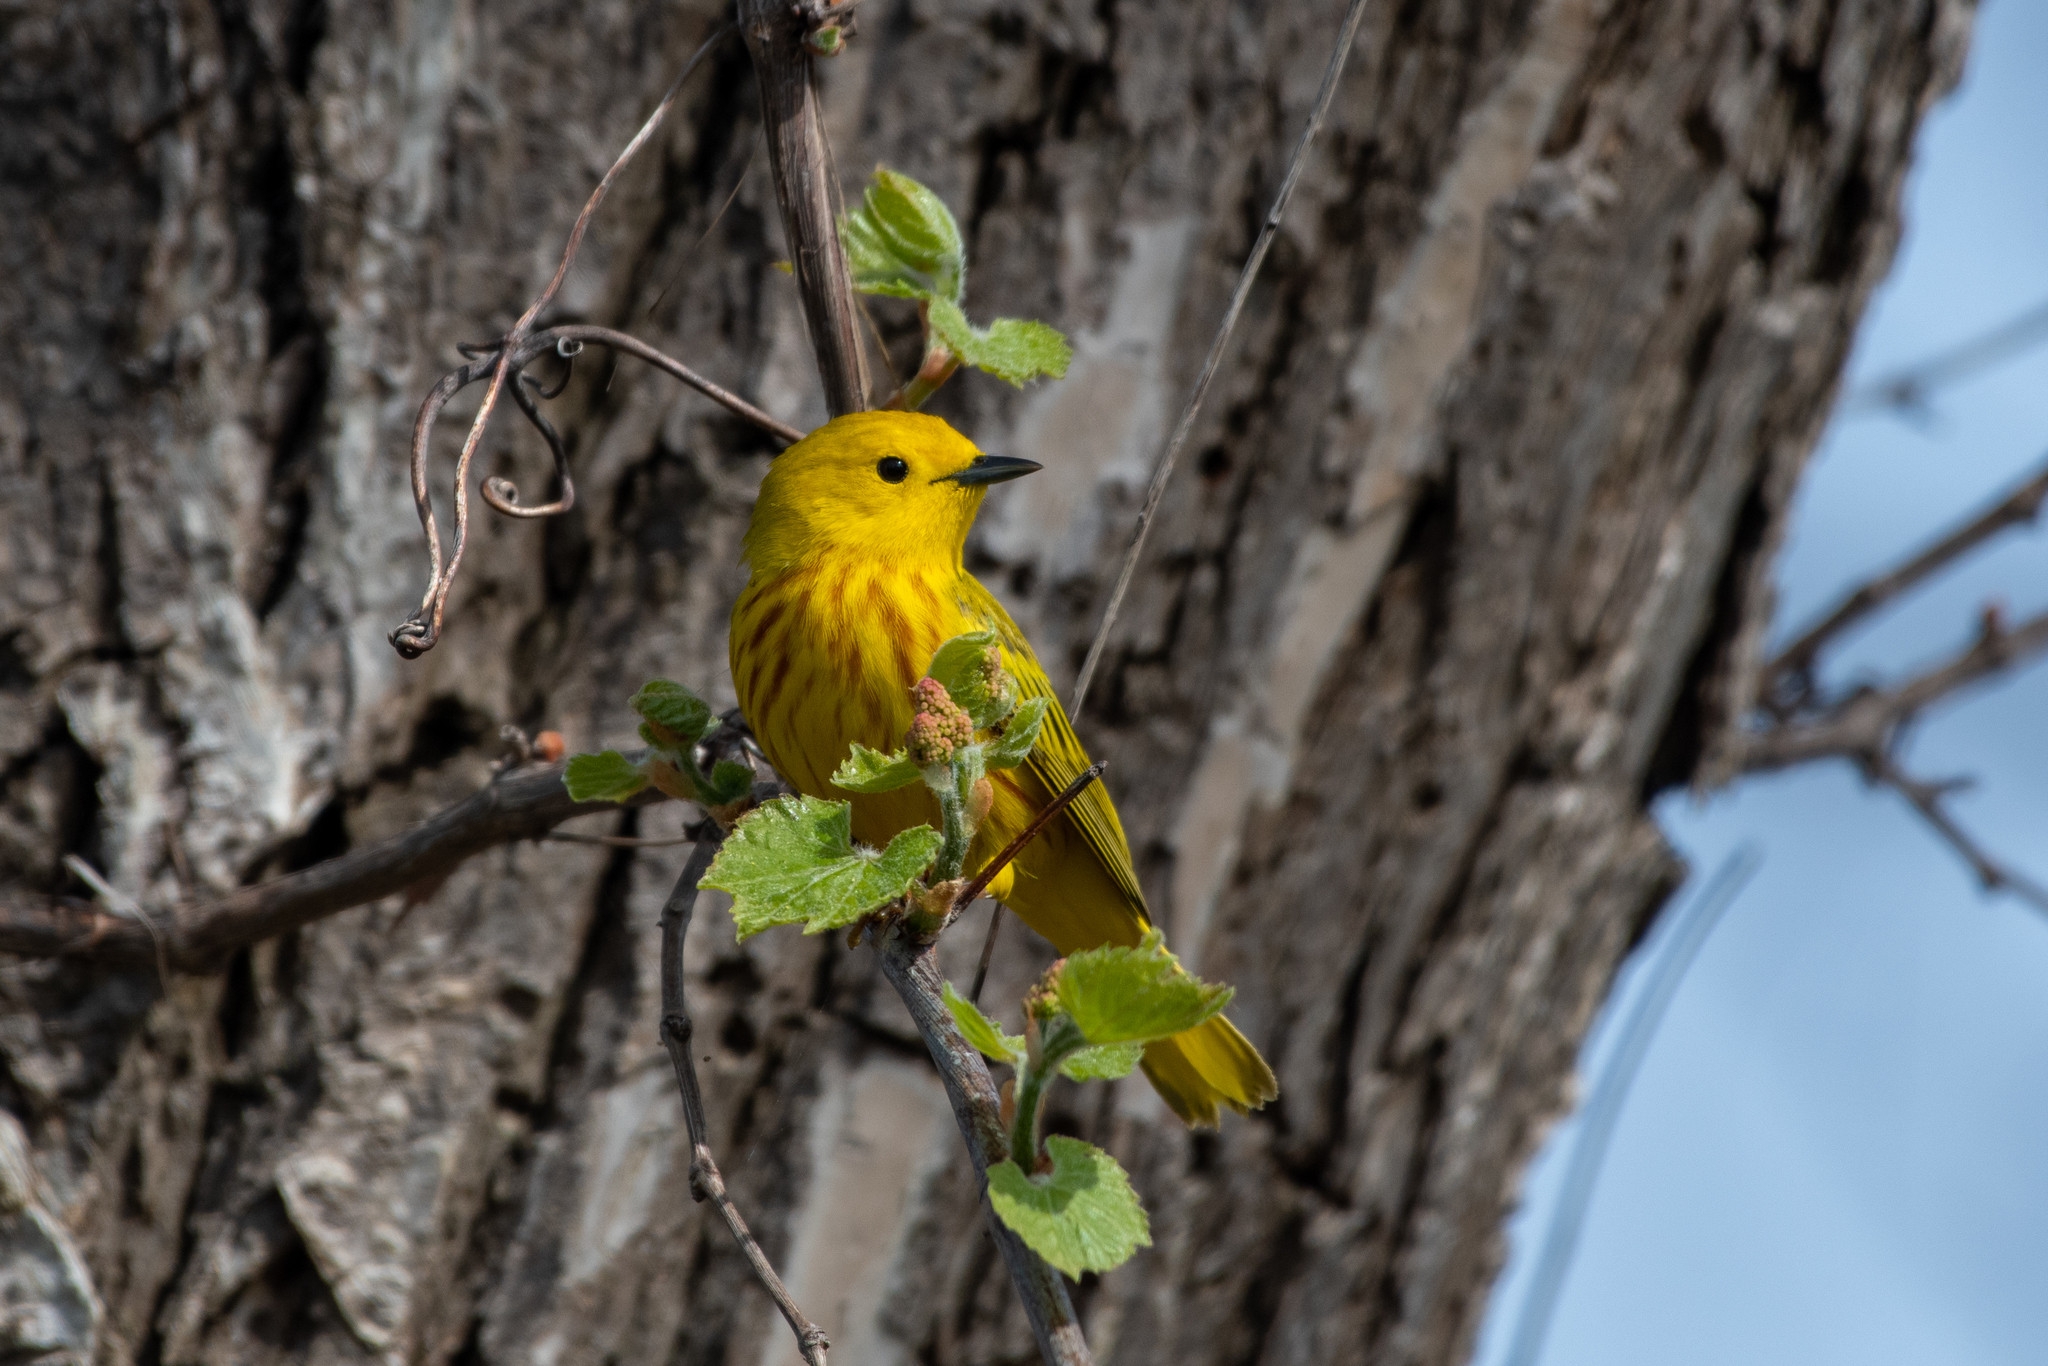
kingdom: Animalia
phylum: Chordata
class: Aves
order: Passeriformes
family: Parulidae
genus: Setophaga
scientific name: Setophaga petechia
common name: Yellow warbler
